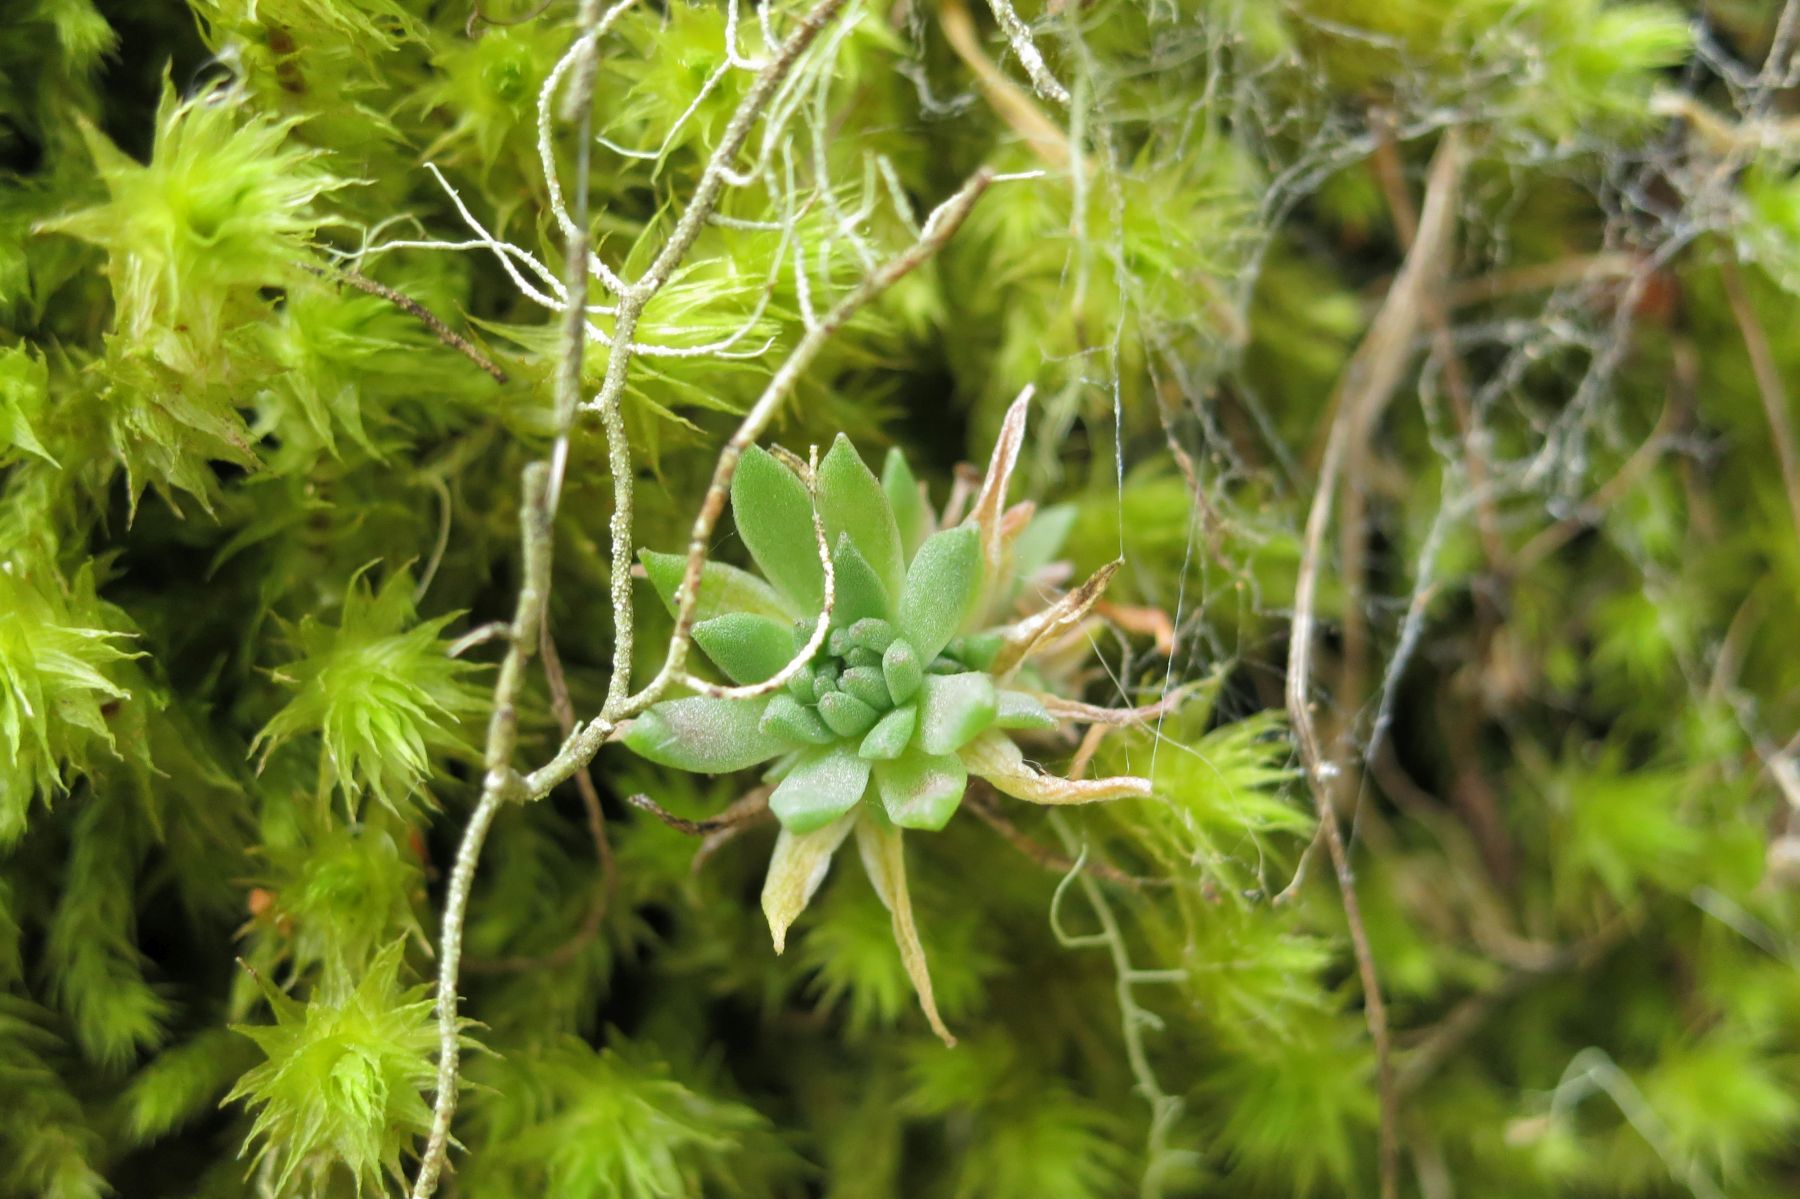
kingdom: Plantae
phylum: Tracheophyta
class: Magnoliopsida
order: Saxifragales
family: Crassulaceae
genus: Sedum
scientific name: Sedum stenopetalum
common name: Narrow-petaled stonecrop
